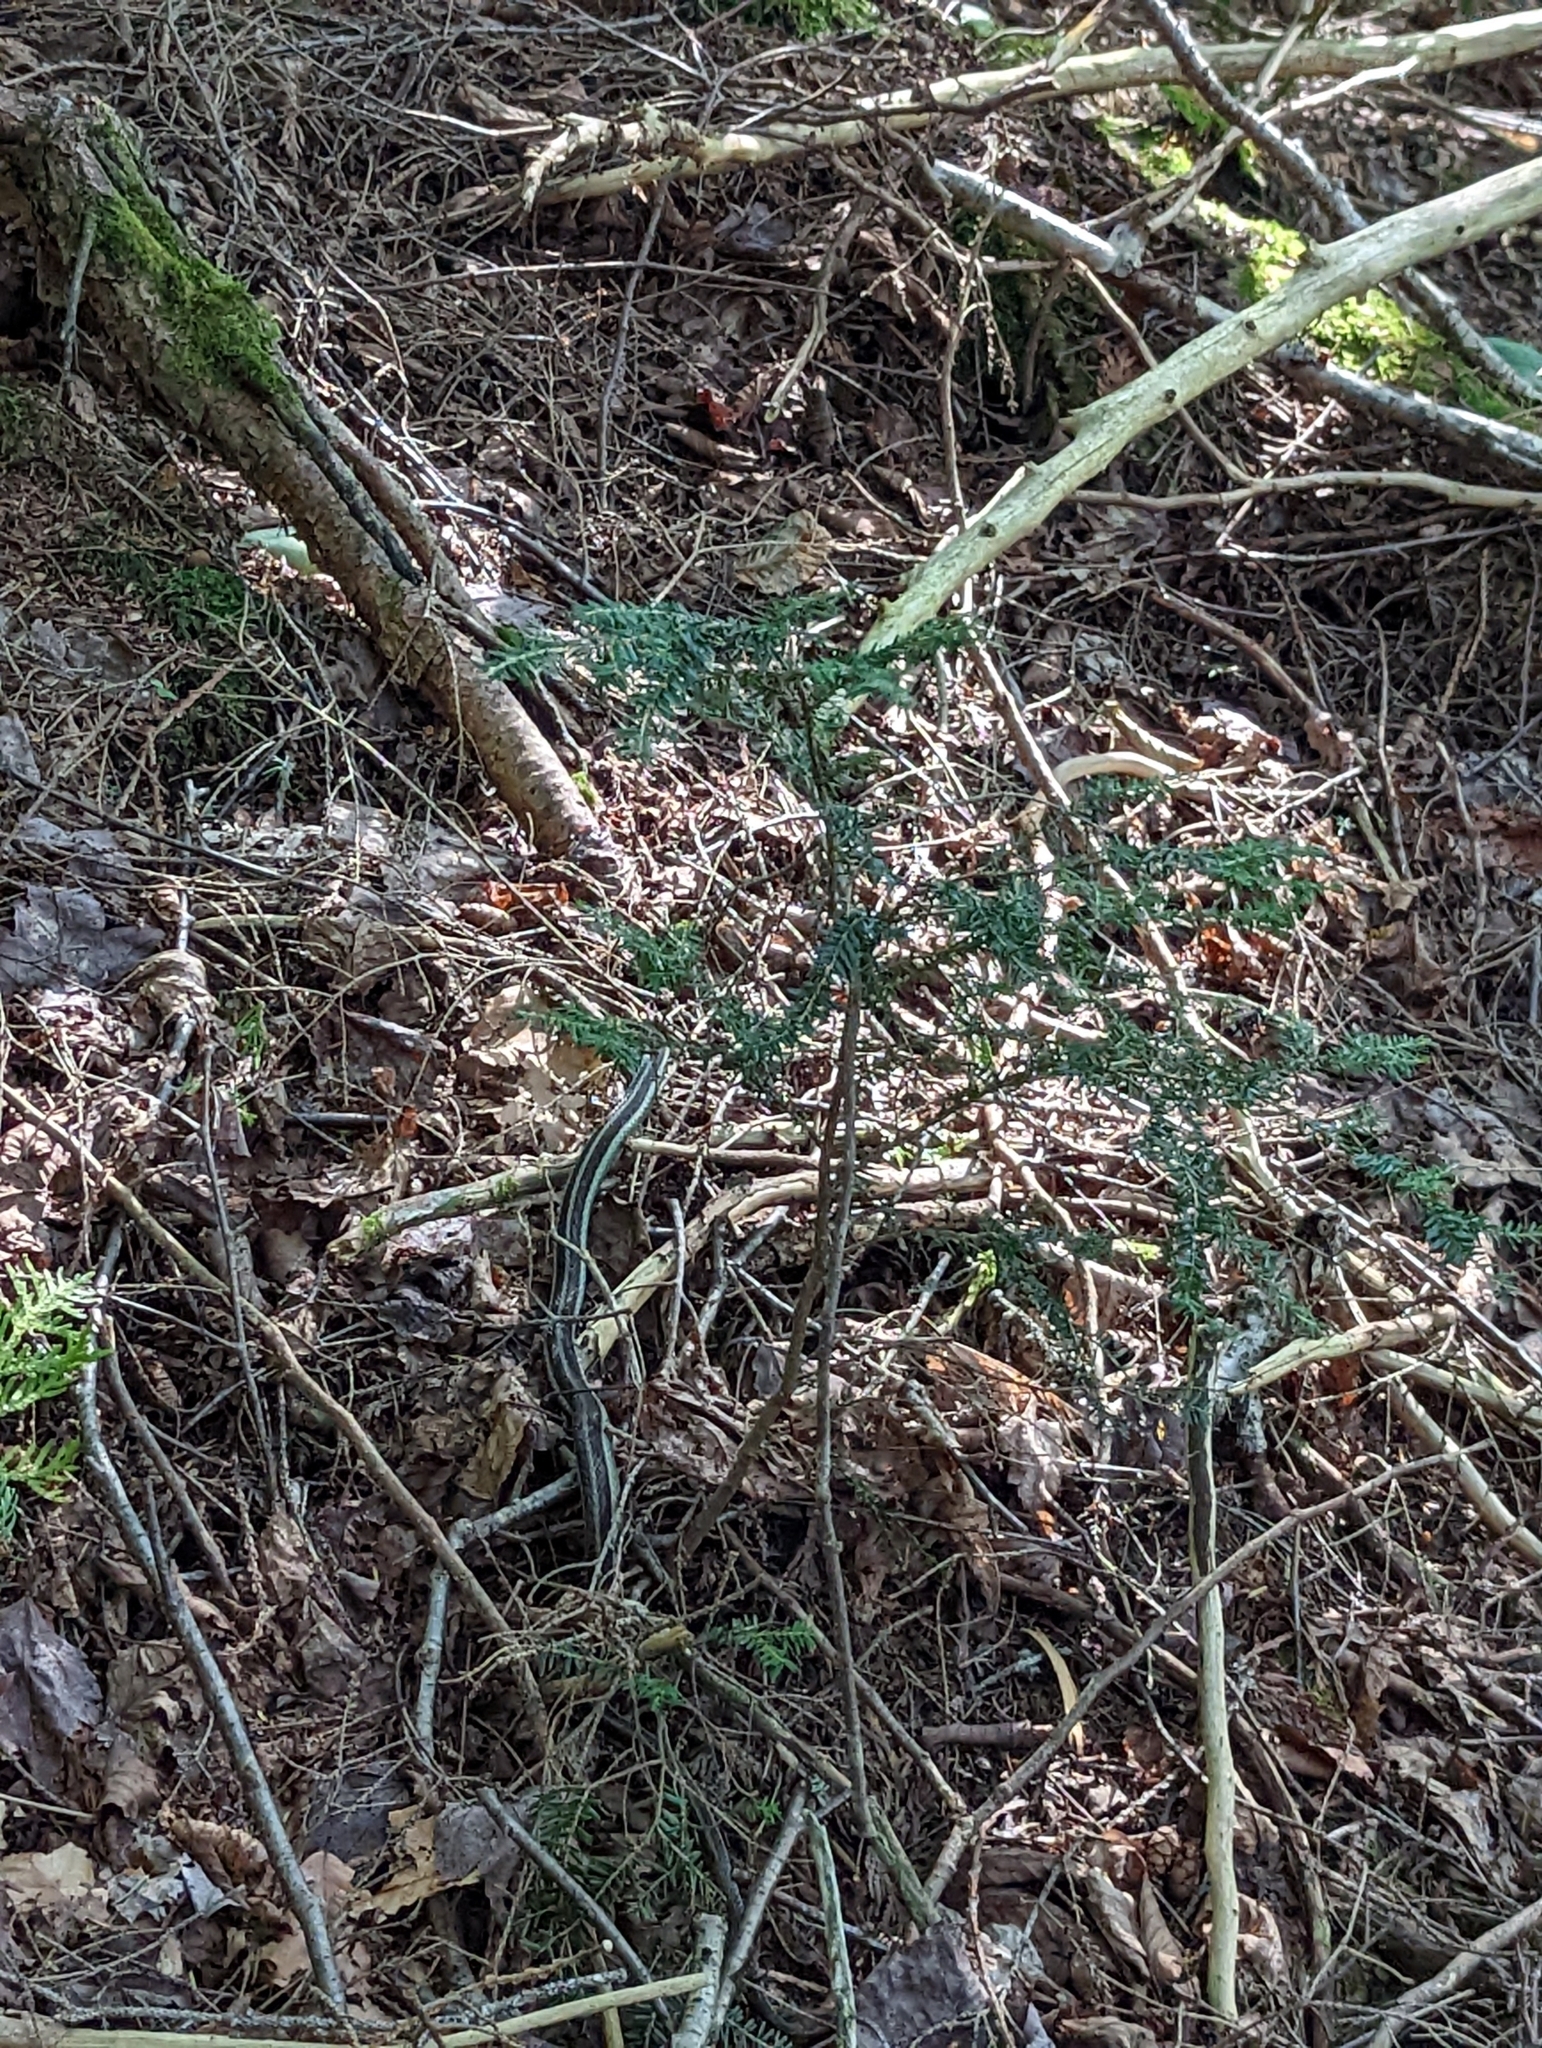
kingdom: Animalia
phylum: Chordata
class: Squamata
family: Colubridae
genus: Thamnophis
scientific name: Thamnophis sirtalis
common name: Common garter snake
